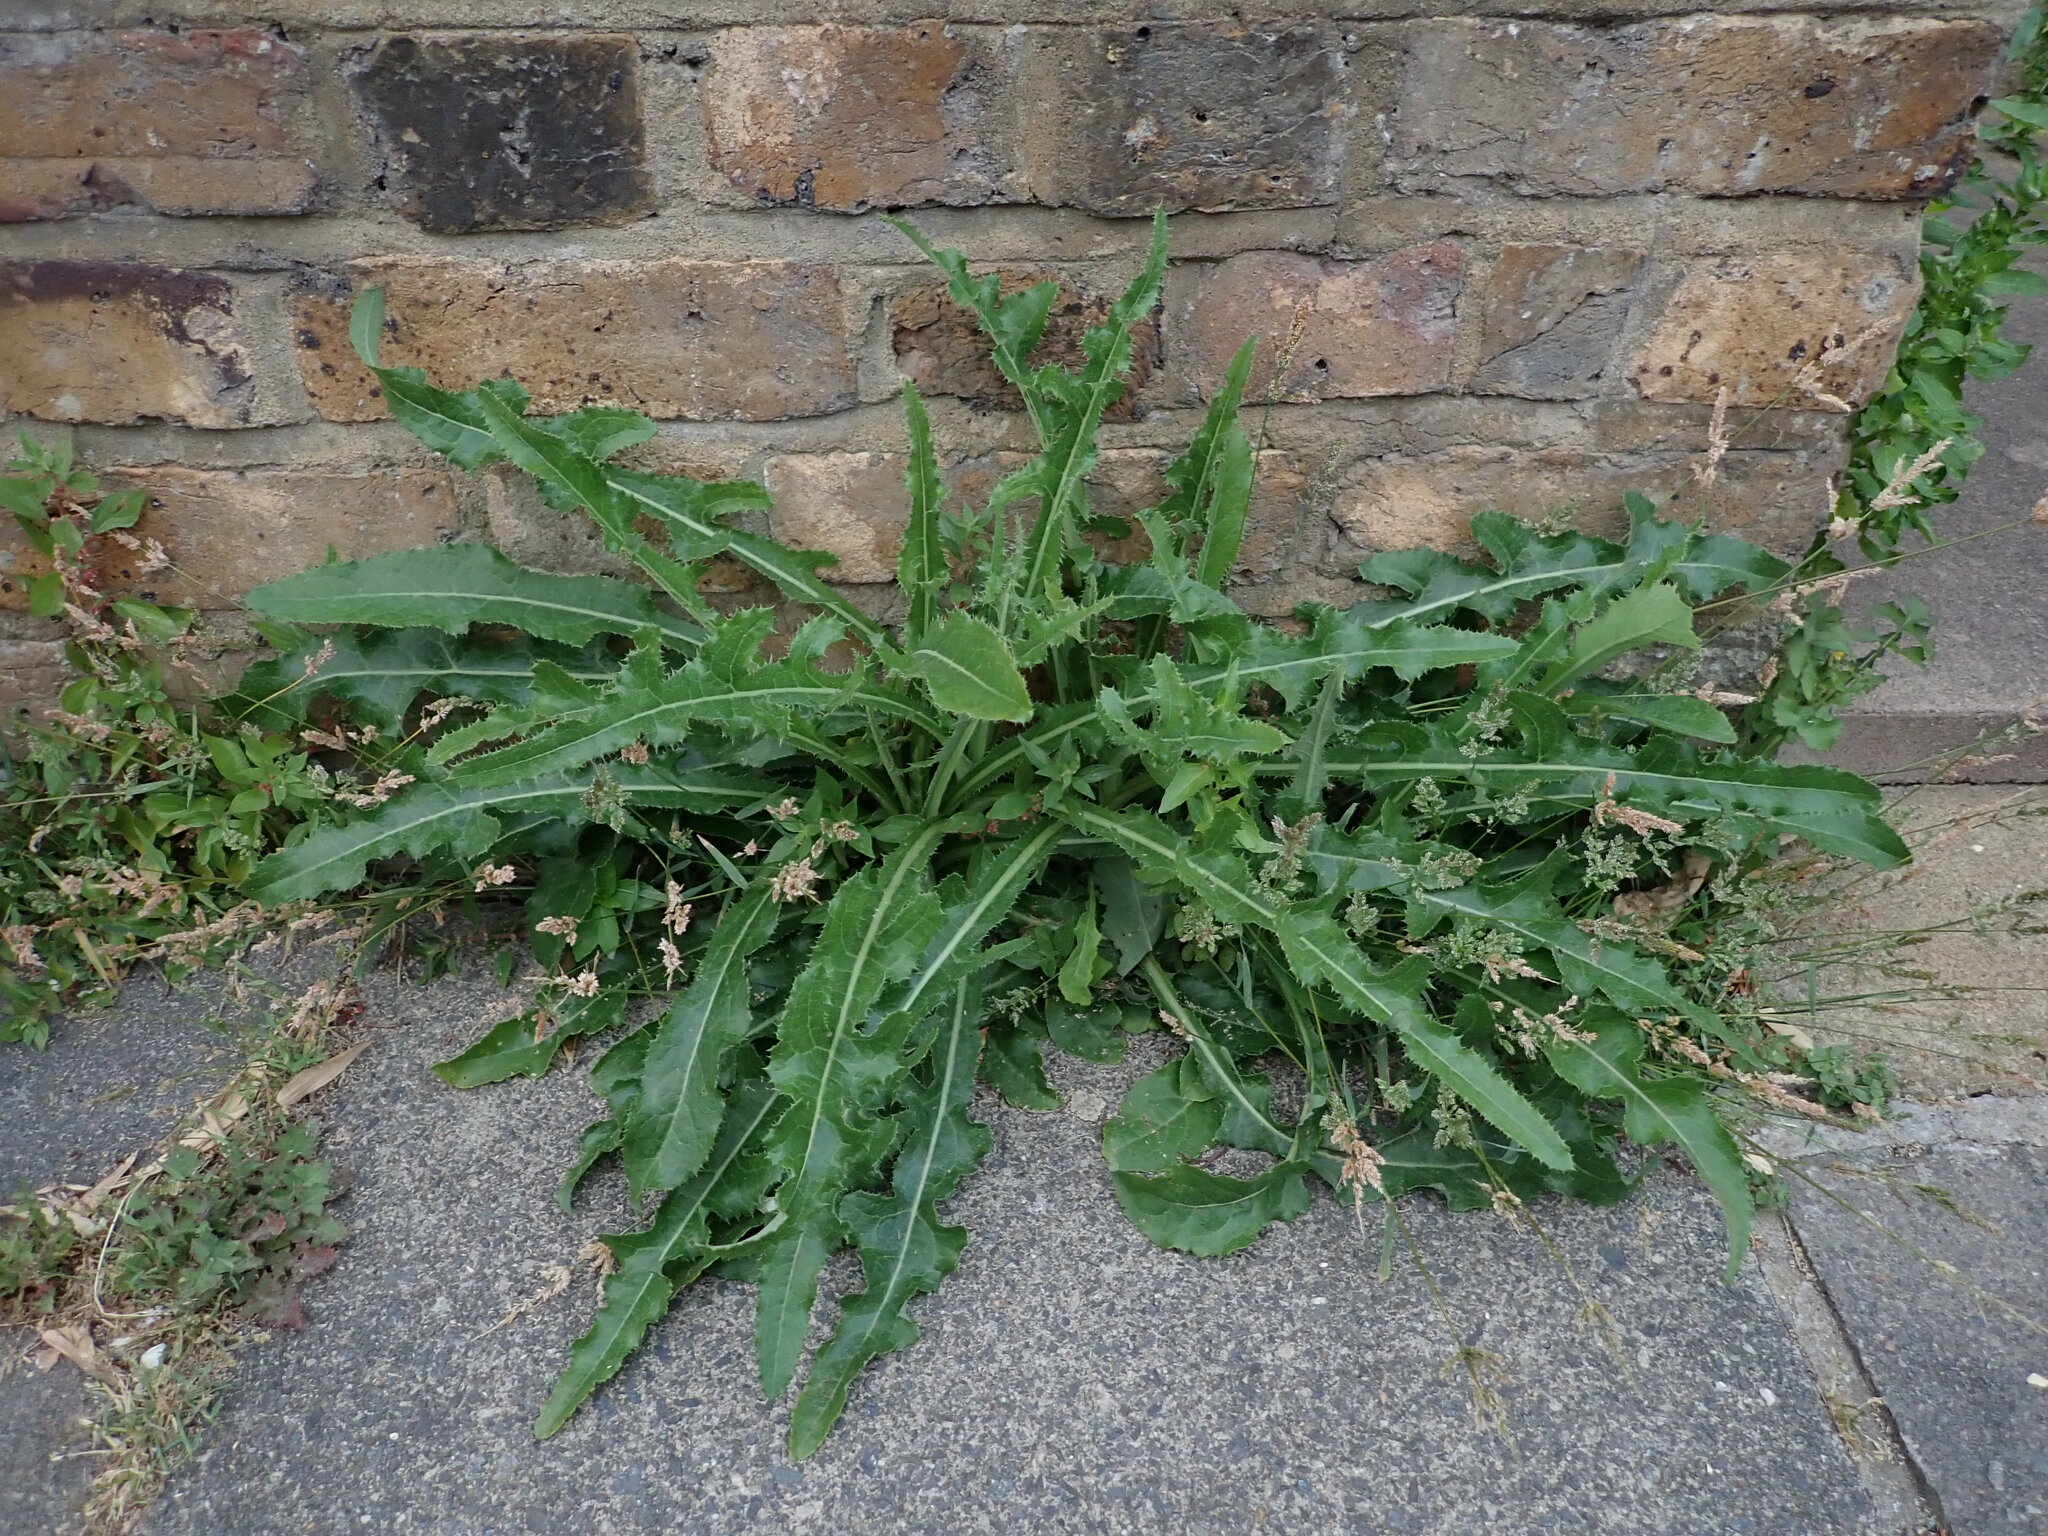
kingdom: Plantae
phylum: Tracheophyta
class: Magnoliopsida
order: Asterales
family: Asteraceae
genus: Sonchus
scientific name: Sonchus arvensis
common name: Perennial sow-thistle
